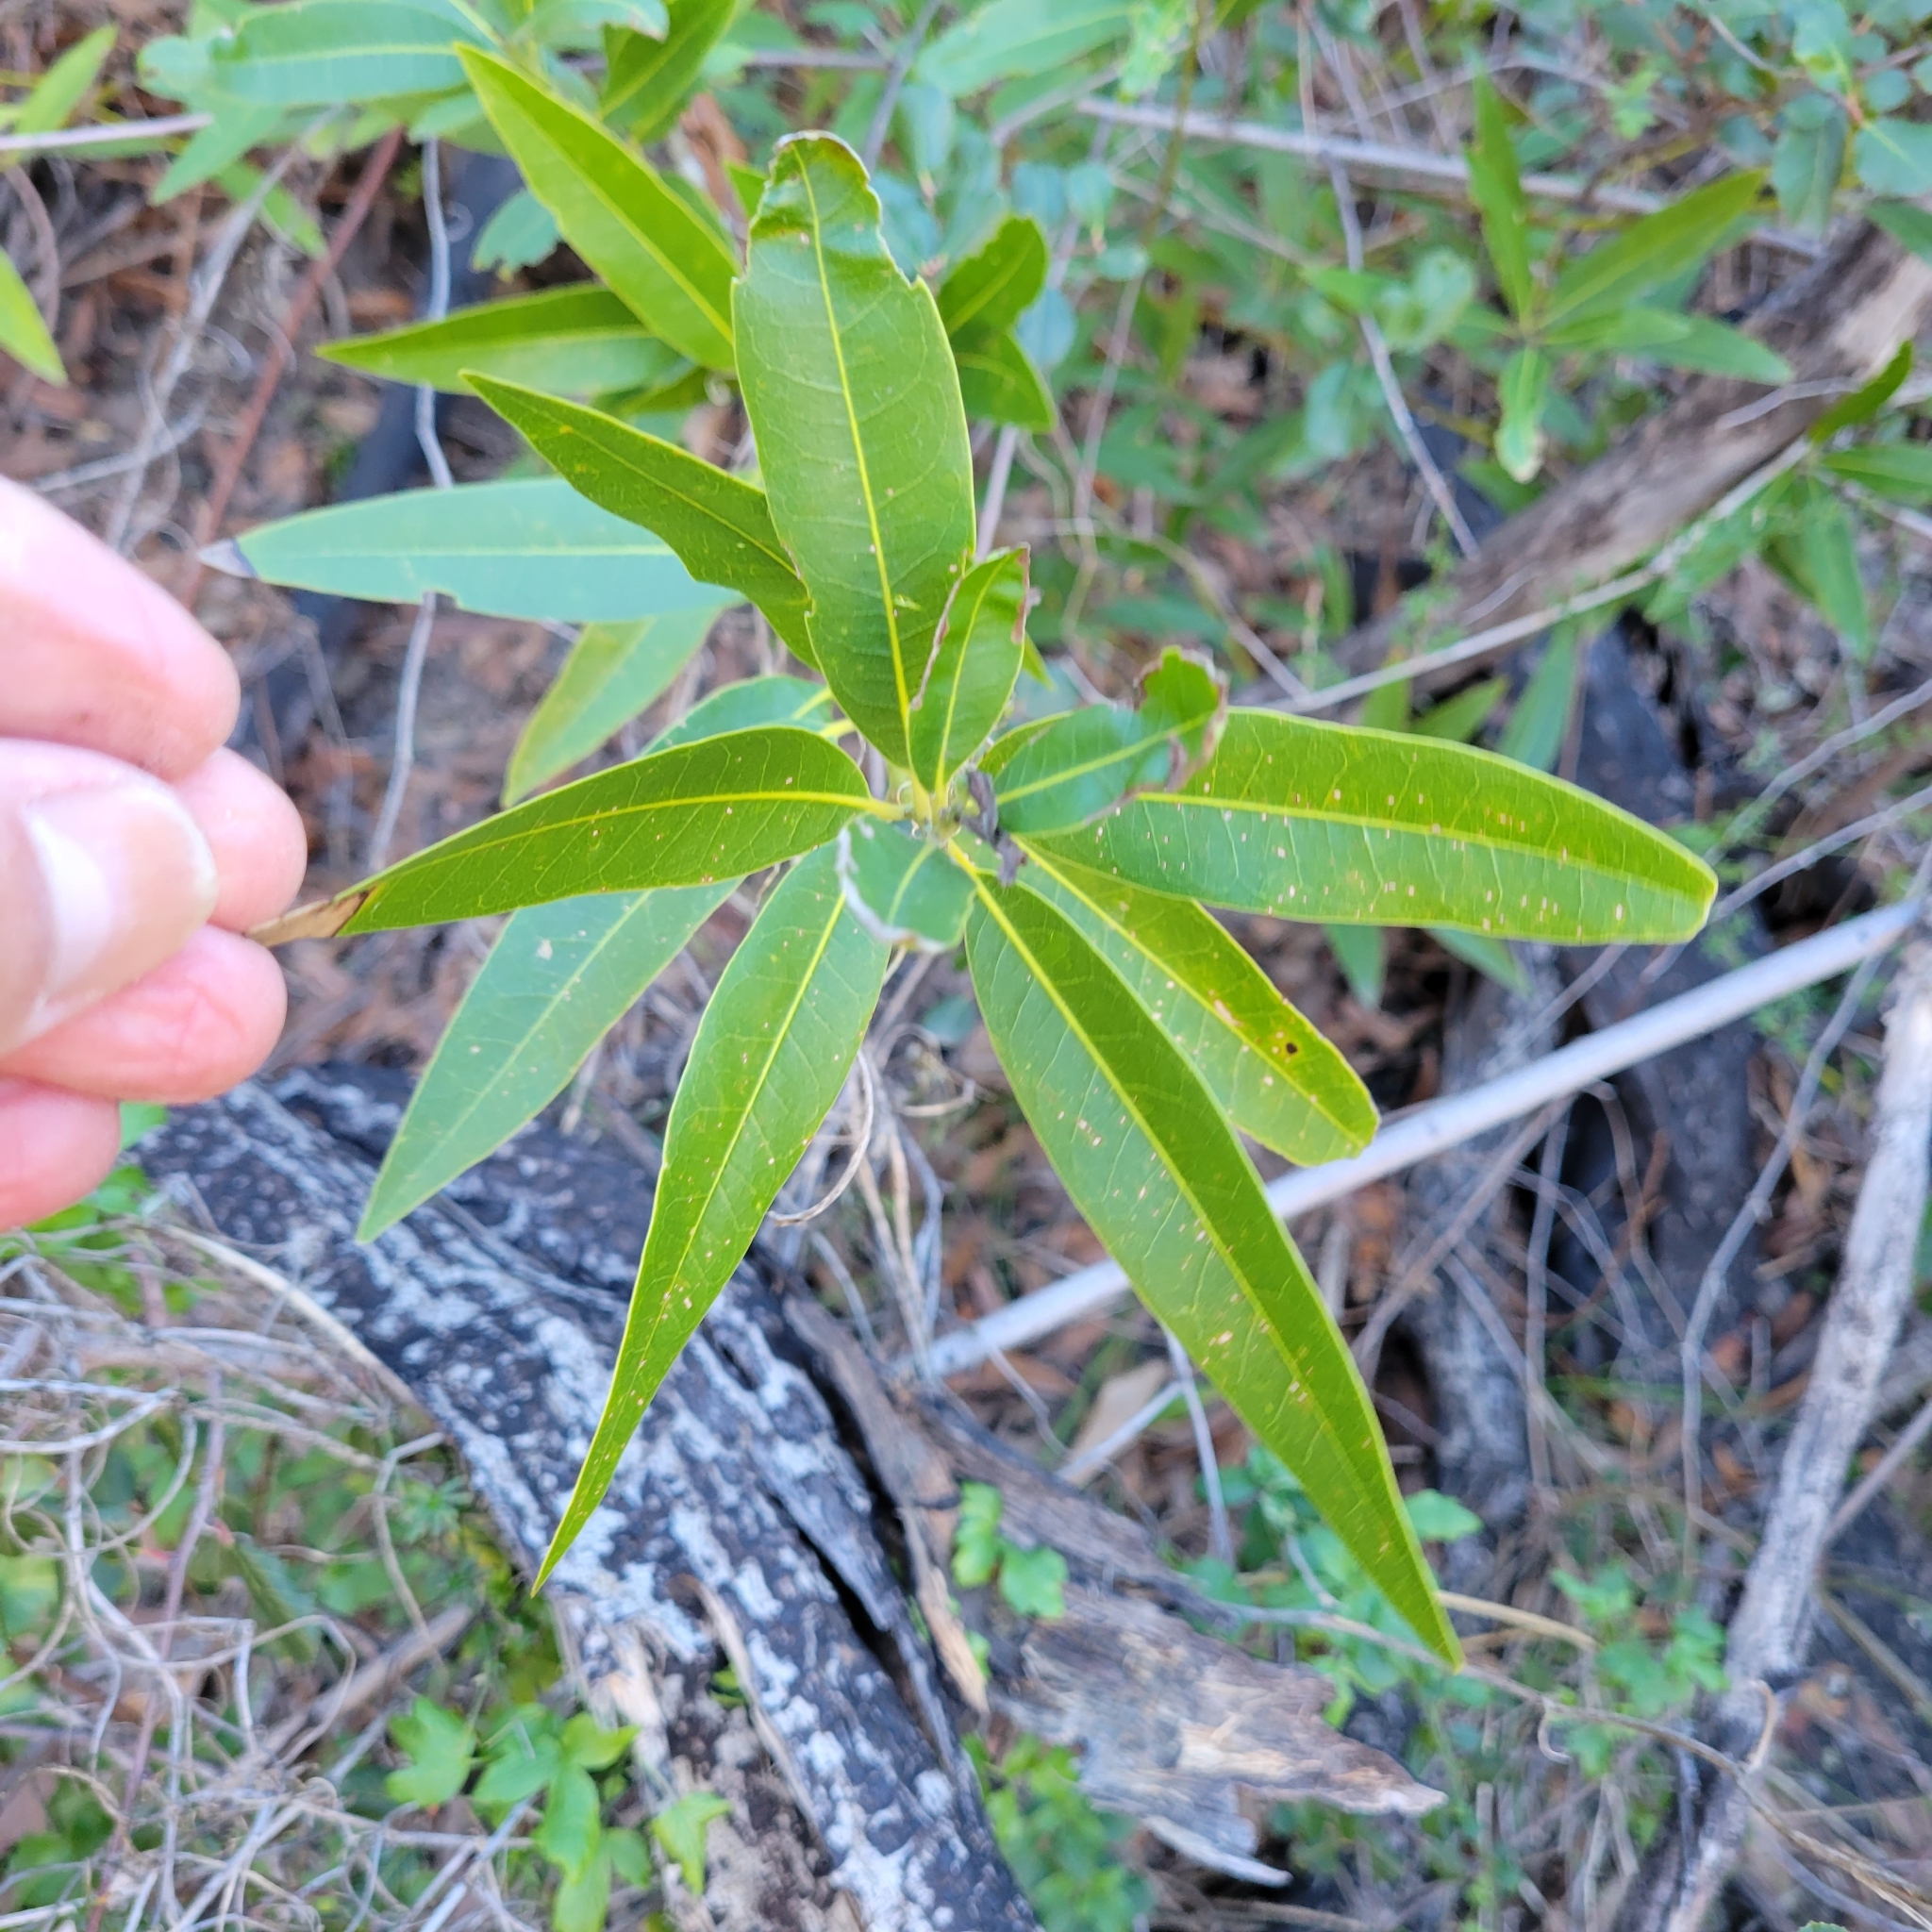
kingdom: Plantae
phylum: Tracheophyta
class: Magnoliopsida
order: Laurales
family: Lauraceae
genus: Umbellularia
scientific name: Umbellularia californica
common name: California bay
